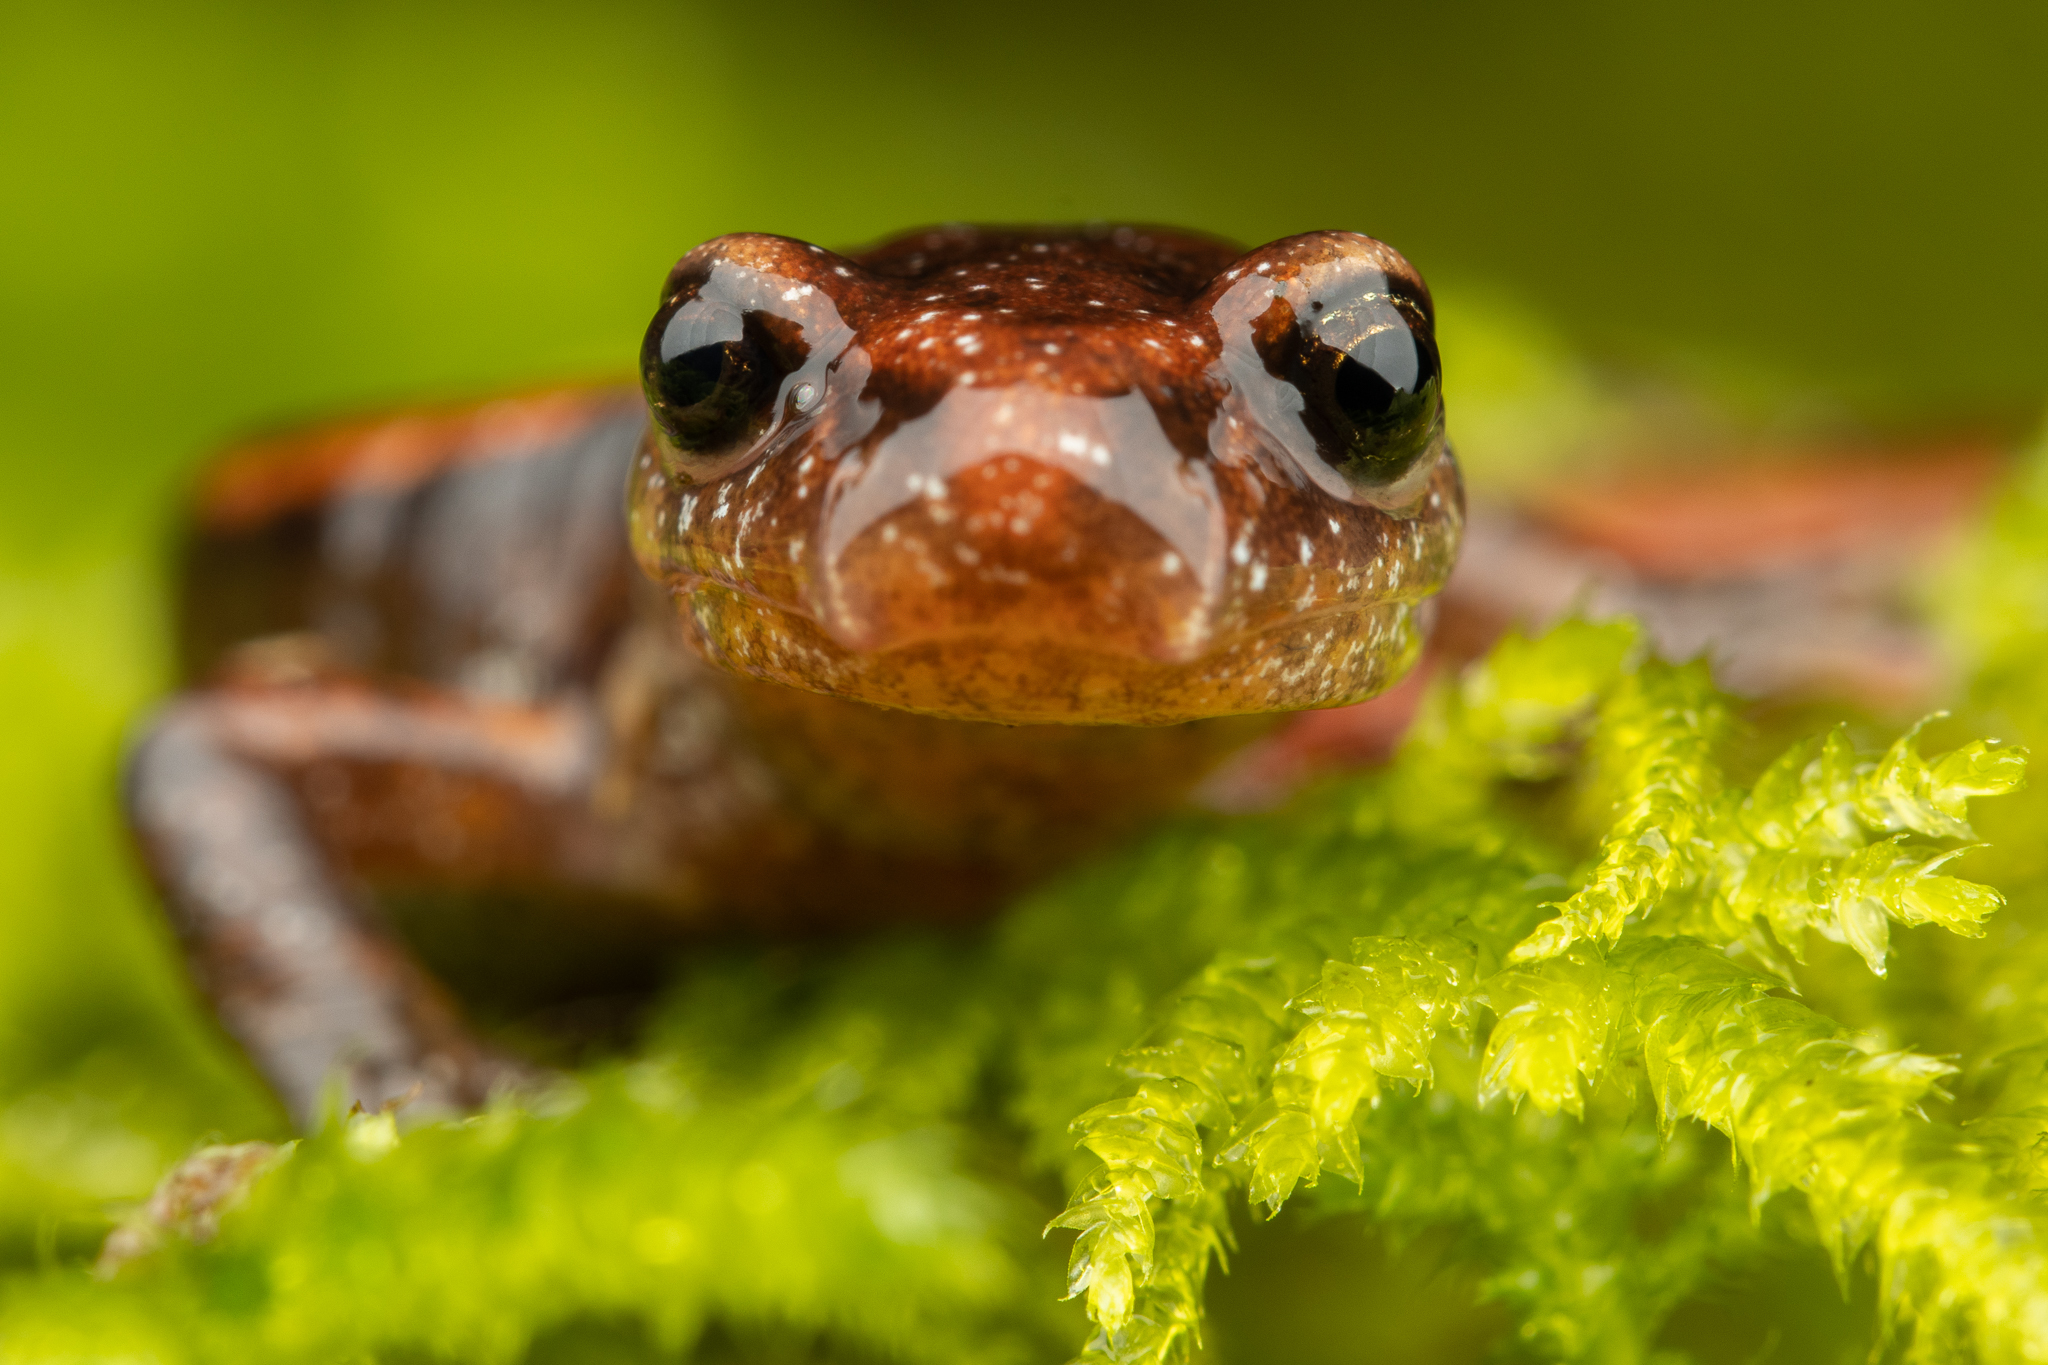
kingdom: Animalia
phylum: Chordata
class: Amphibia
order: Caudata
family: Plethodontidae
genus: Plethodon
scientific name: Plethodon vehiculum
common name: Western red-backed salamander
